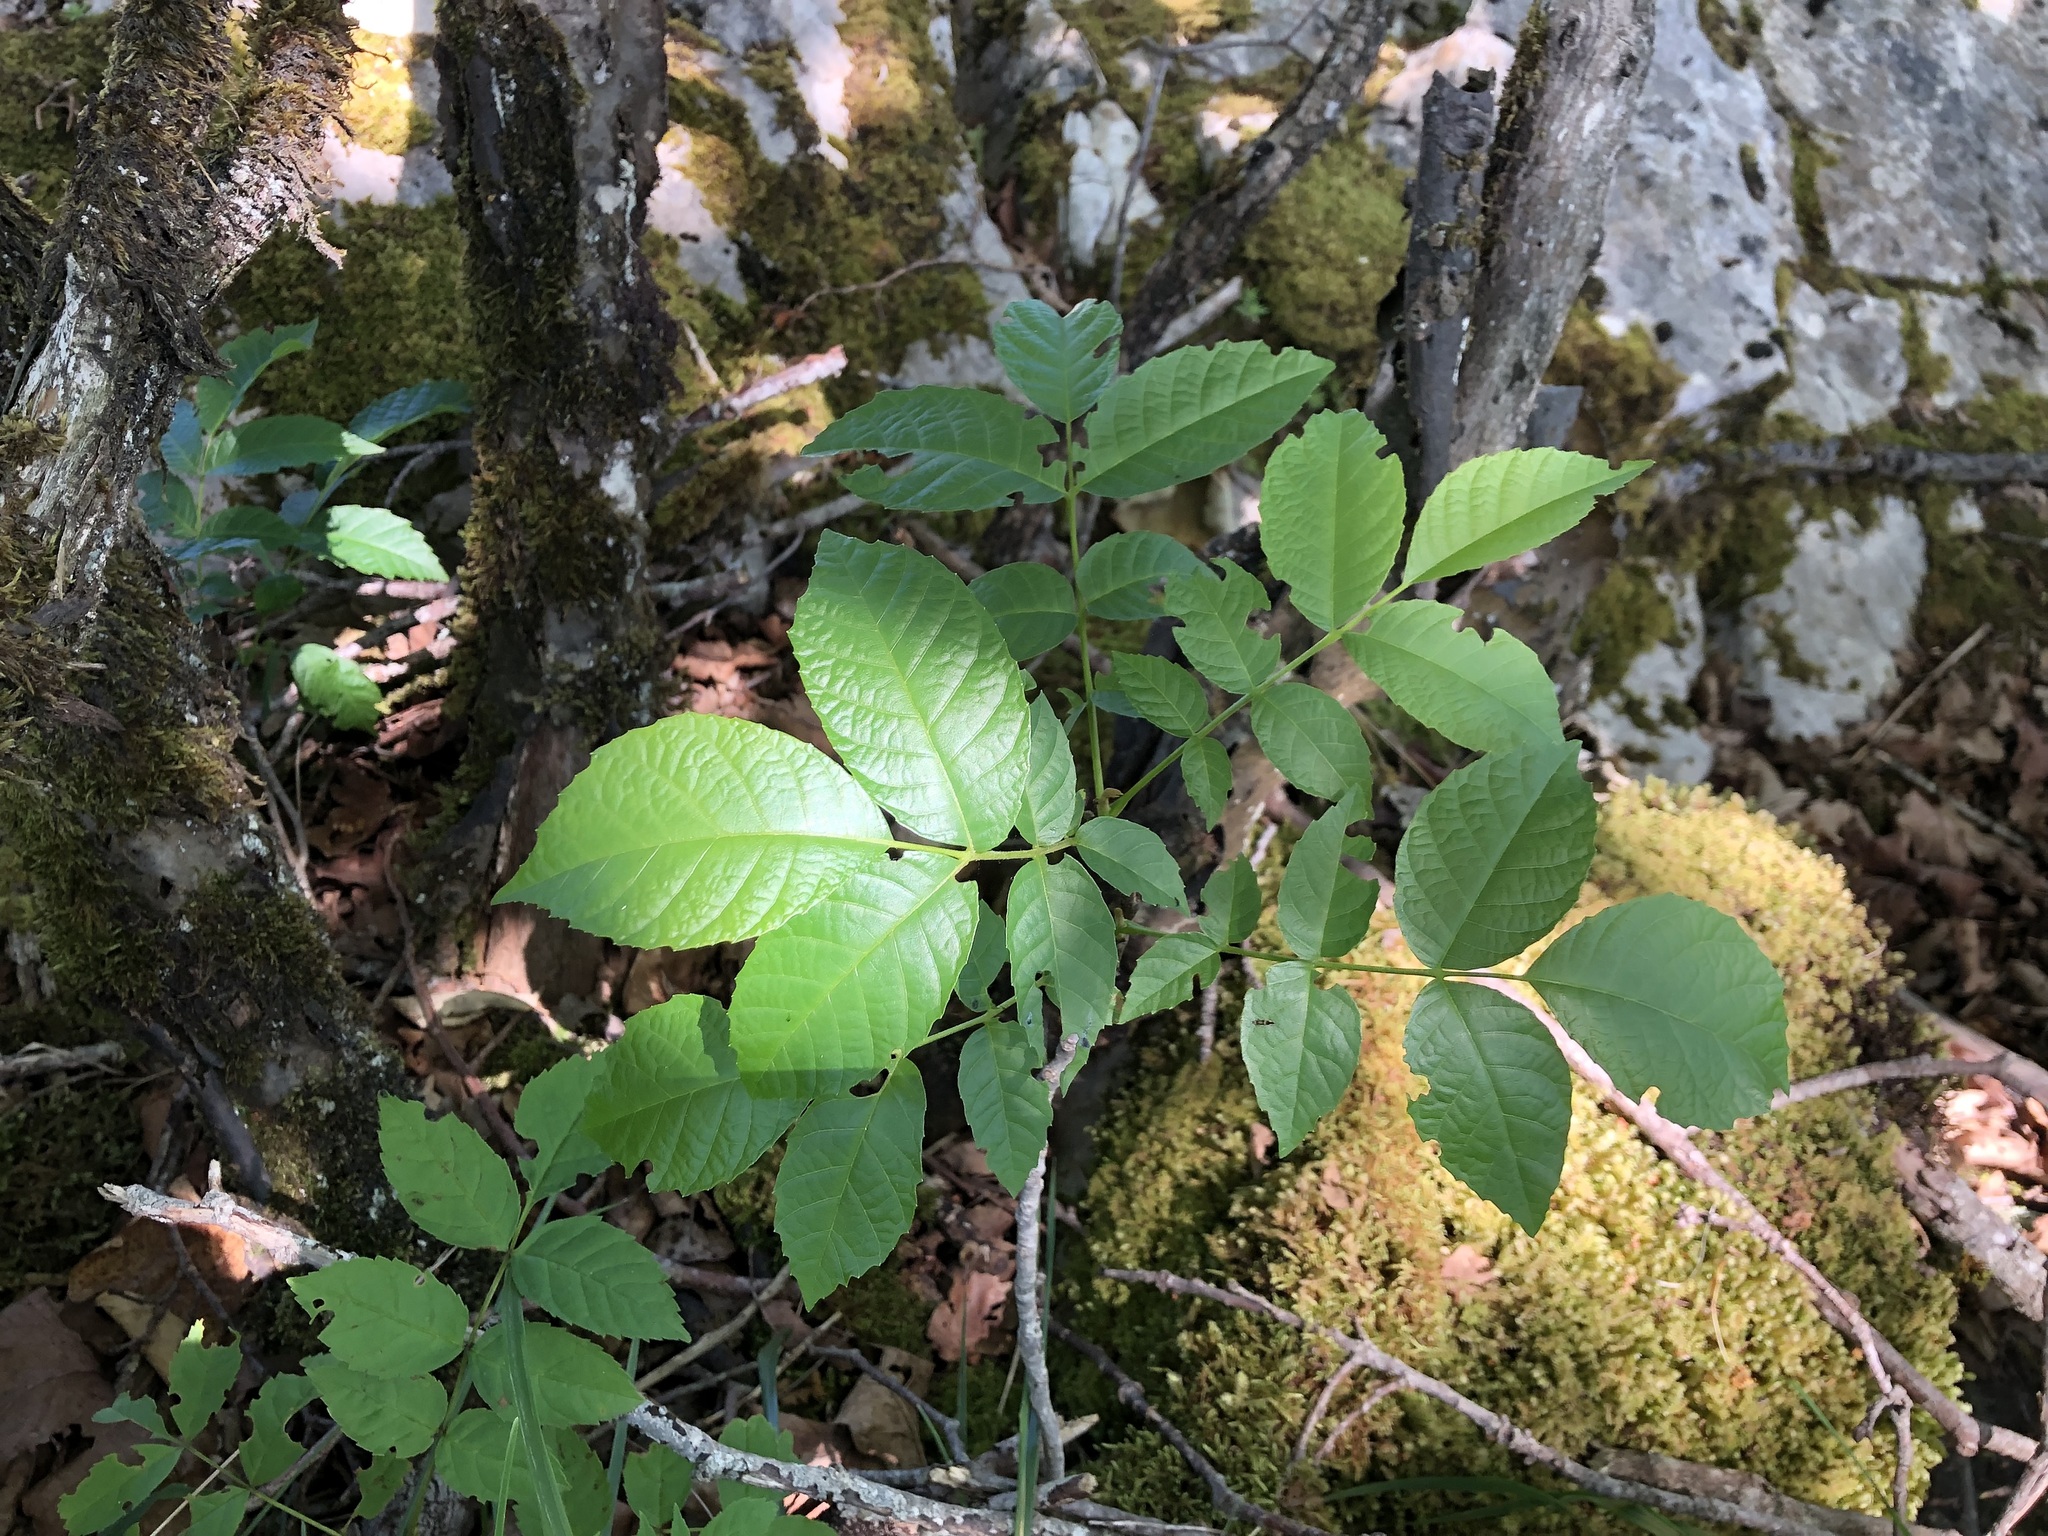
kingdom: Plantae
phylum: Tracheophyta
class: Magnoliopsida
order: Lamiales
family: Oleaceae
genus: Fraxinus
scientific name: Fraxinus excelsior
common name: European ash
